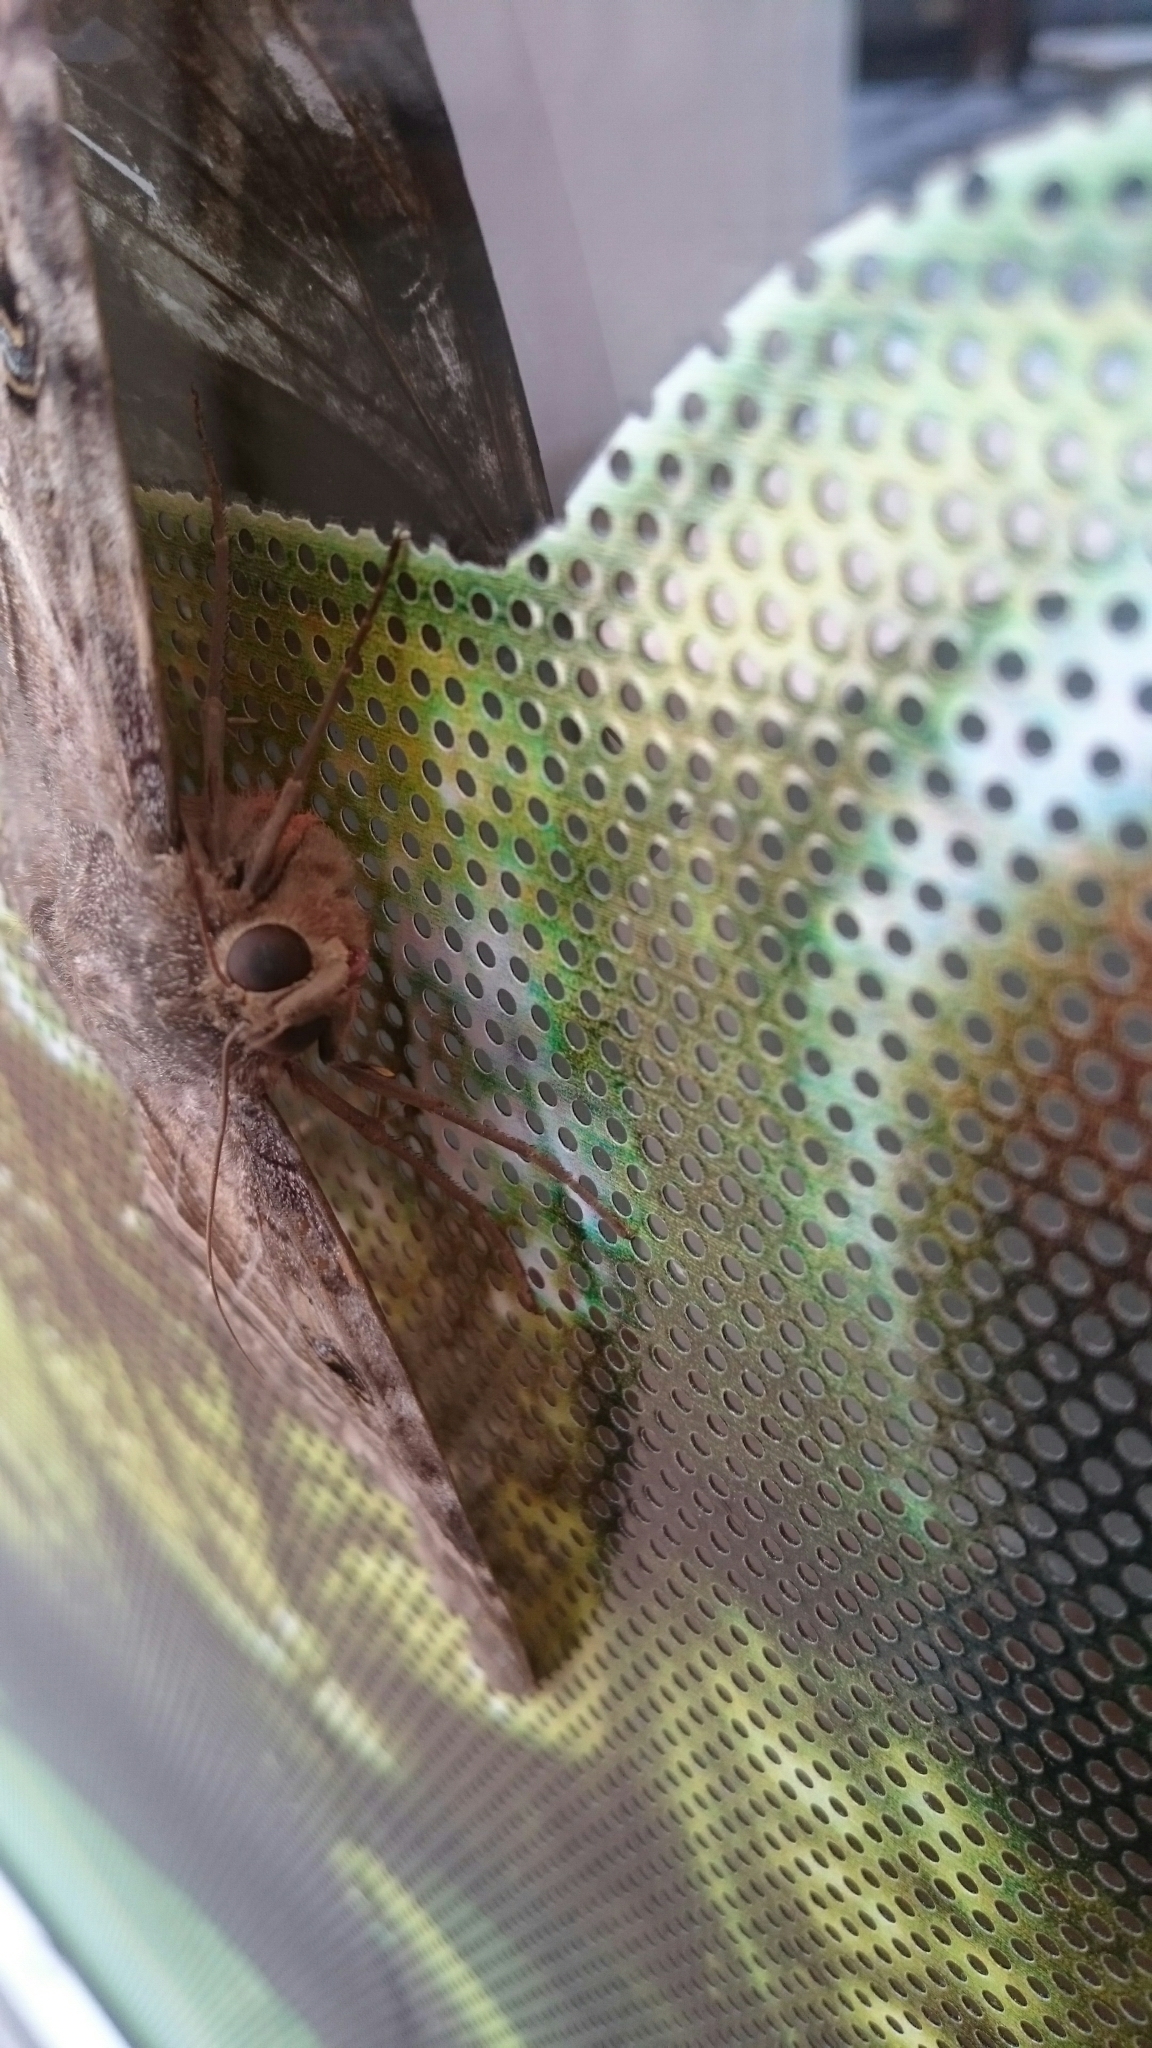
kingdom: Animalia
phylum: Arthropoda
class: Insecta
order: Lepidoptera
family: Erebidae
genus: Ascalapha
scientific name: Ascalapha odorata
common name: Black witch
